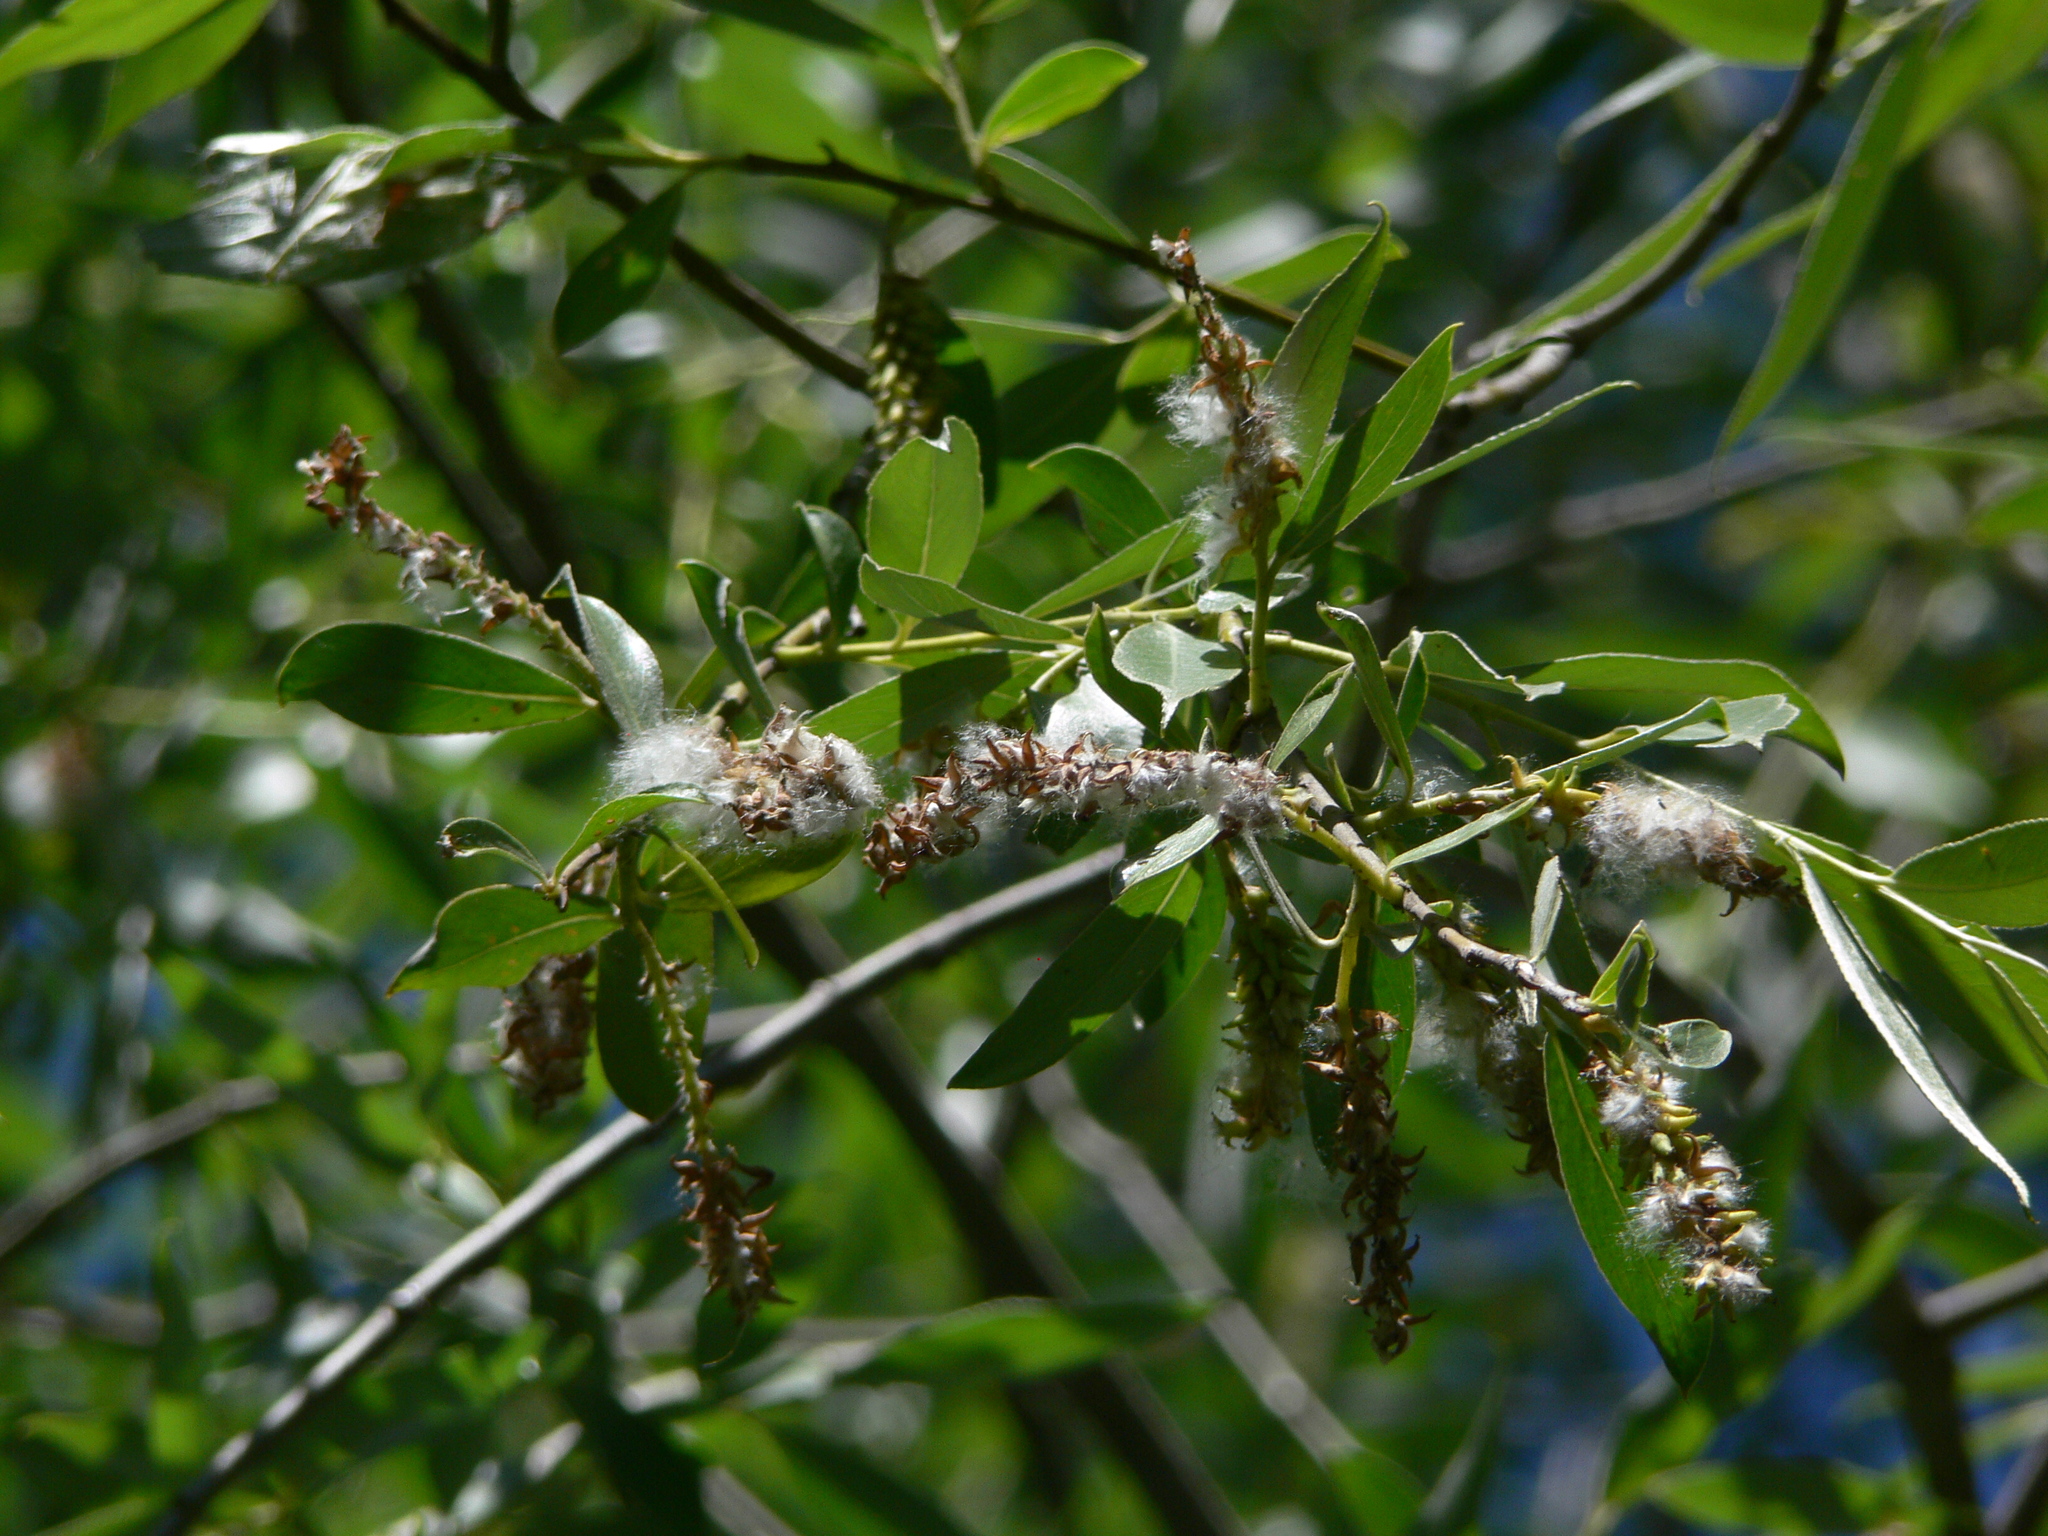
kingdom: Plantae
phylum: Tracheophyta
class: Magnoliopsida
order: Malpighiales
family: Salicaceae
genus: Salix
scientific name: Salix alba
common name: White willow
